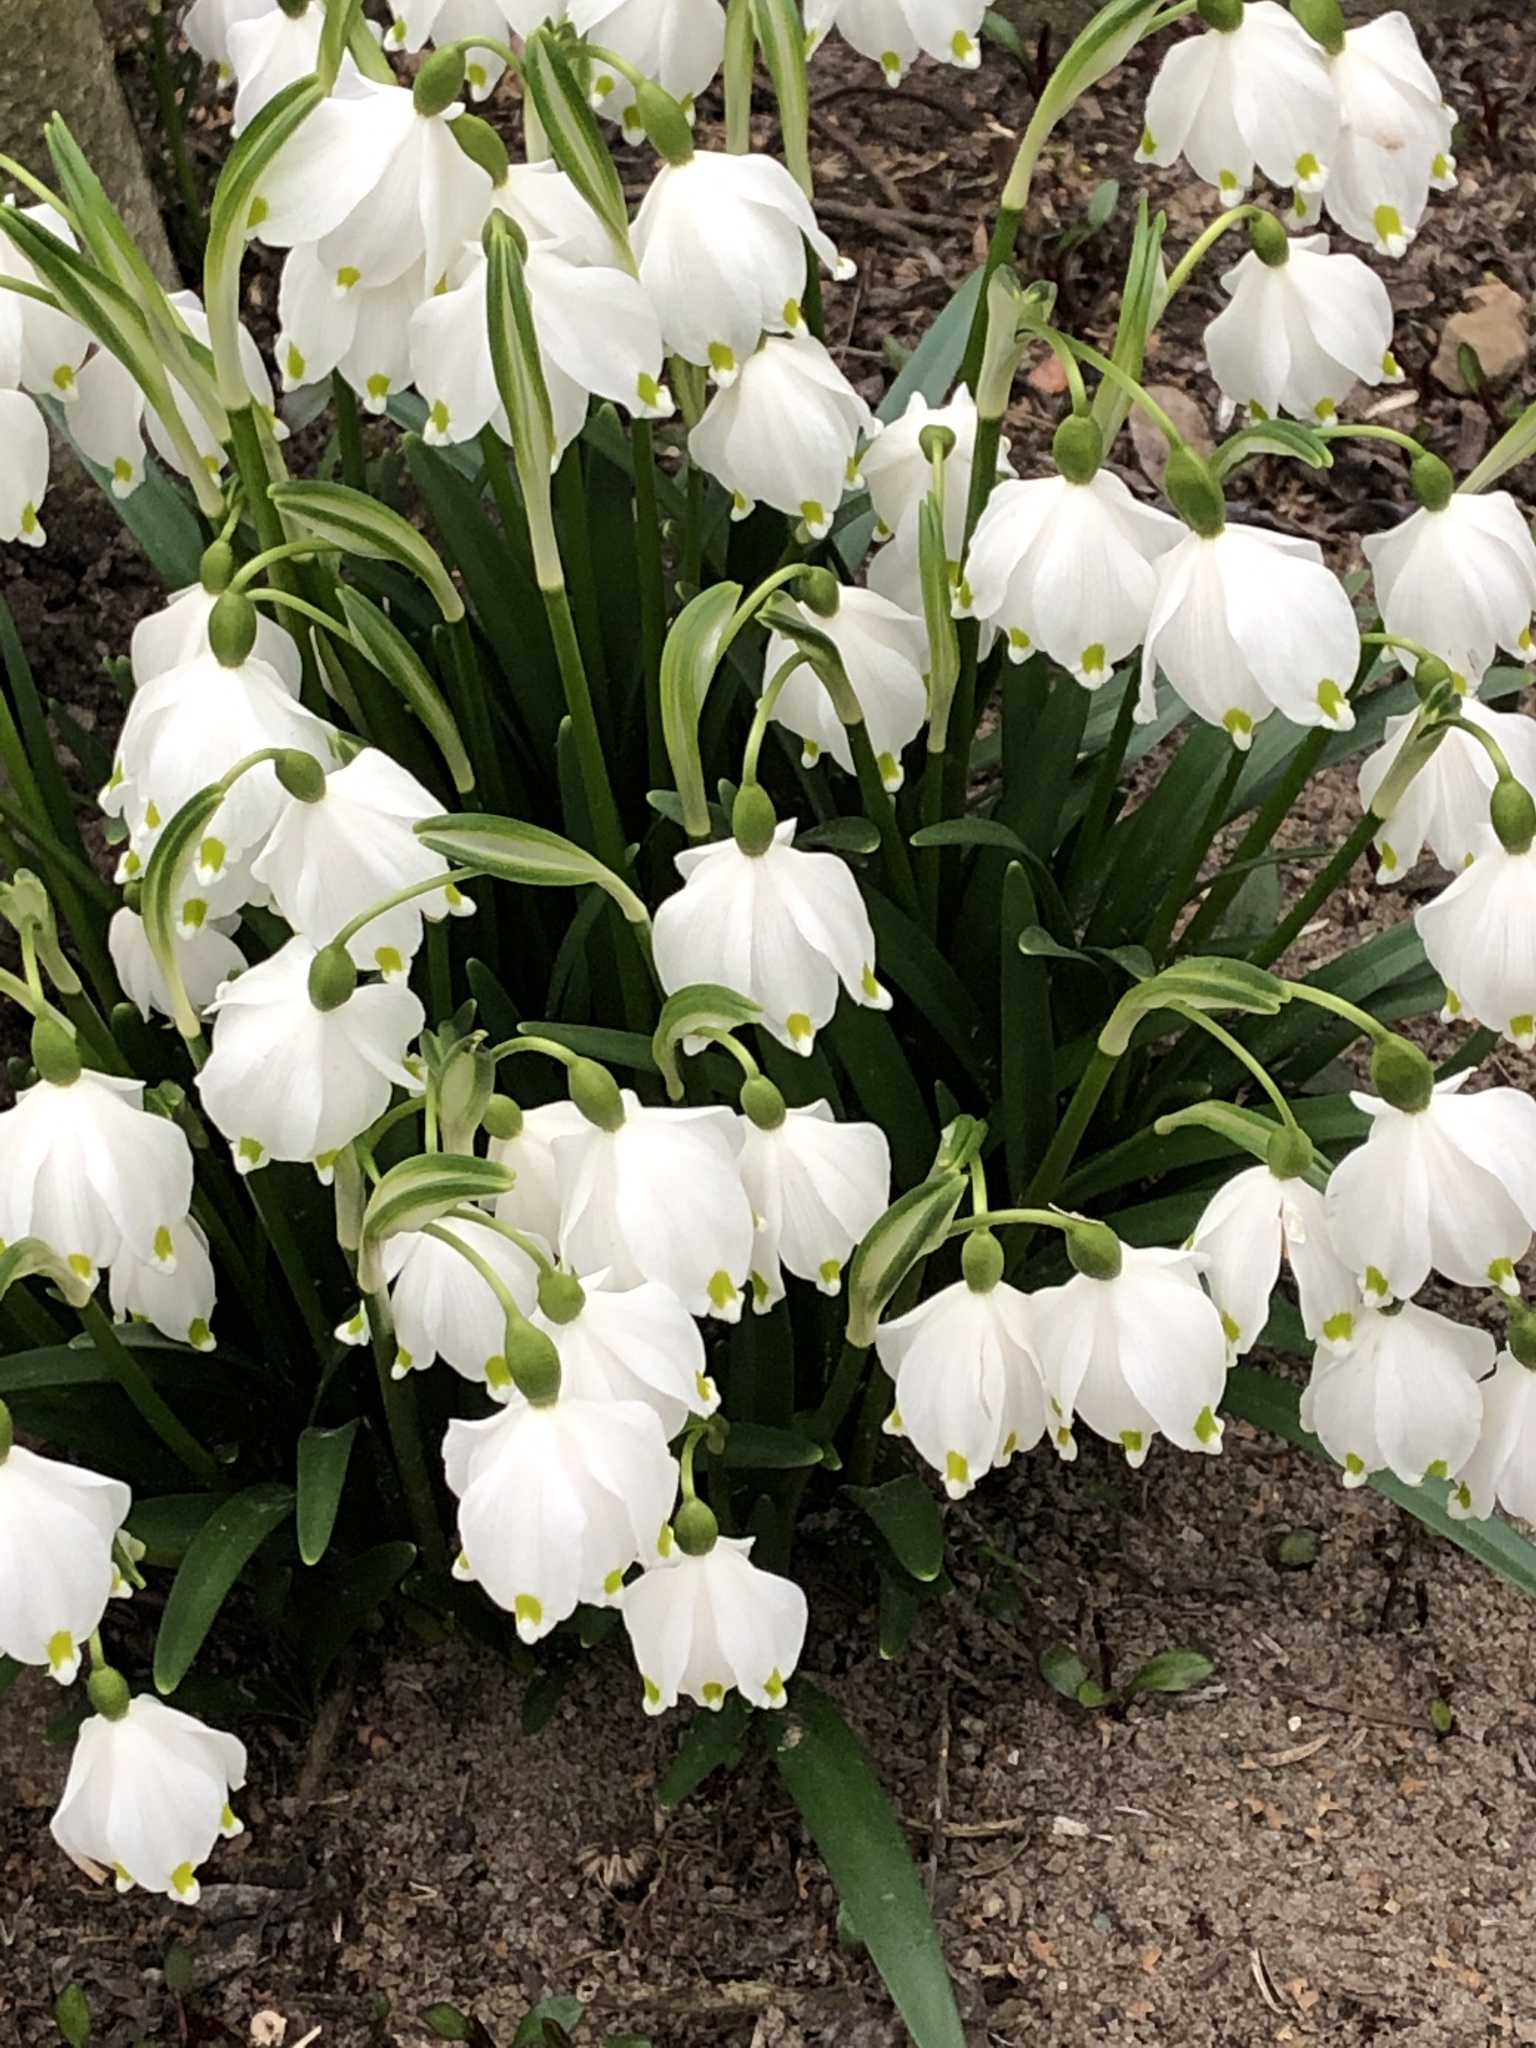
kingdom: Plantae
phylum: Tracheophyta
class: Liliopsida
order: Asparagales
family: Amaryllidaceae
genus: Leucojum
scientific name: Leucojum vernum
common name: Spring snowflake
